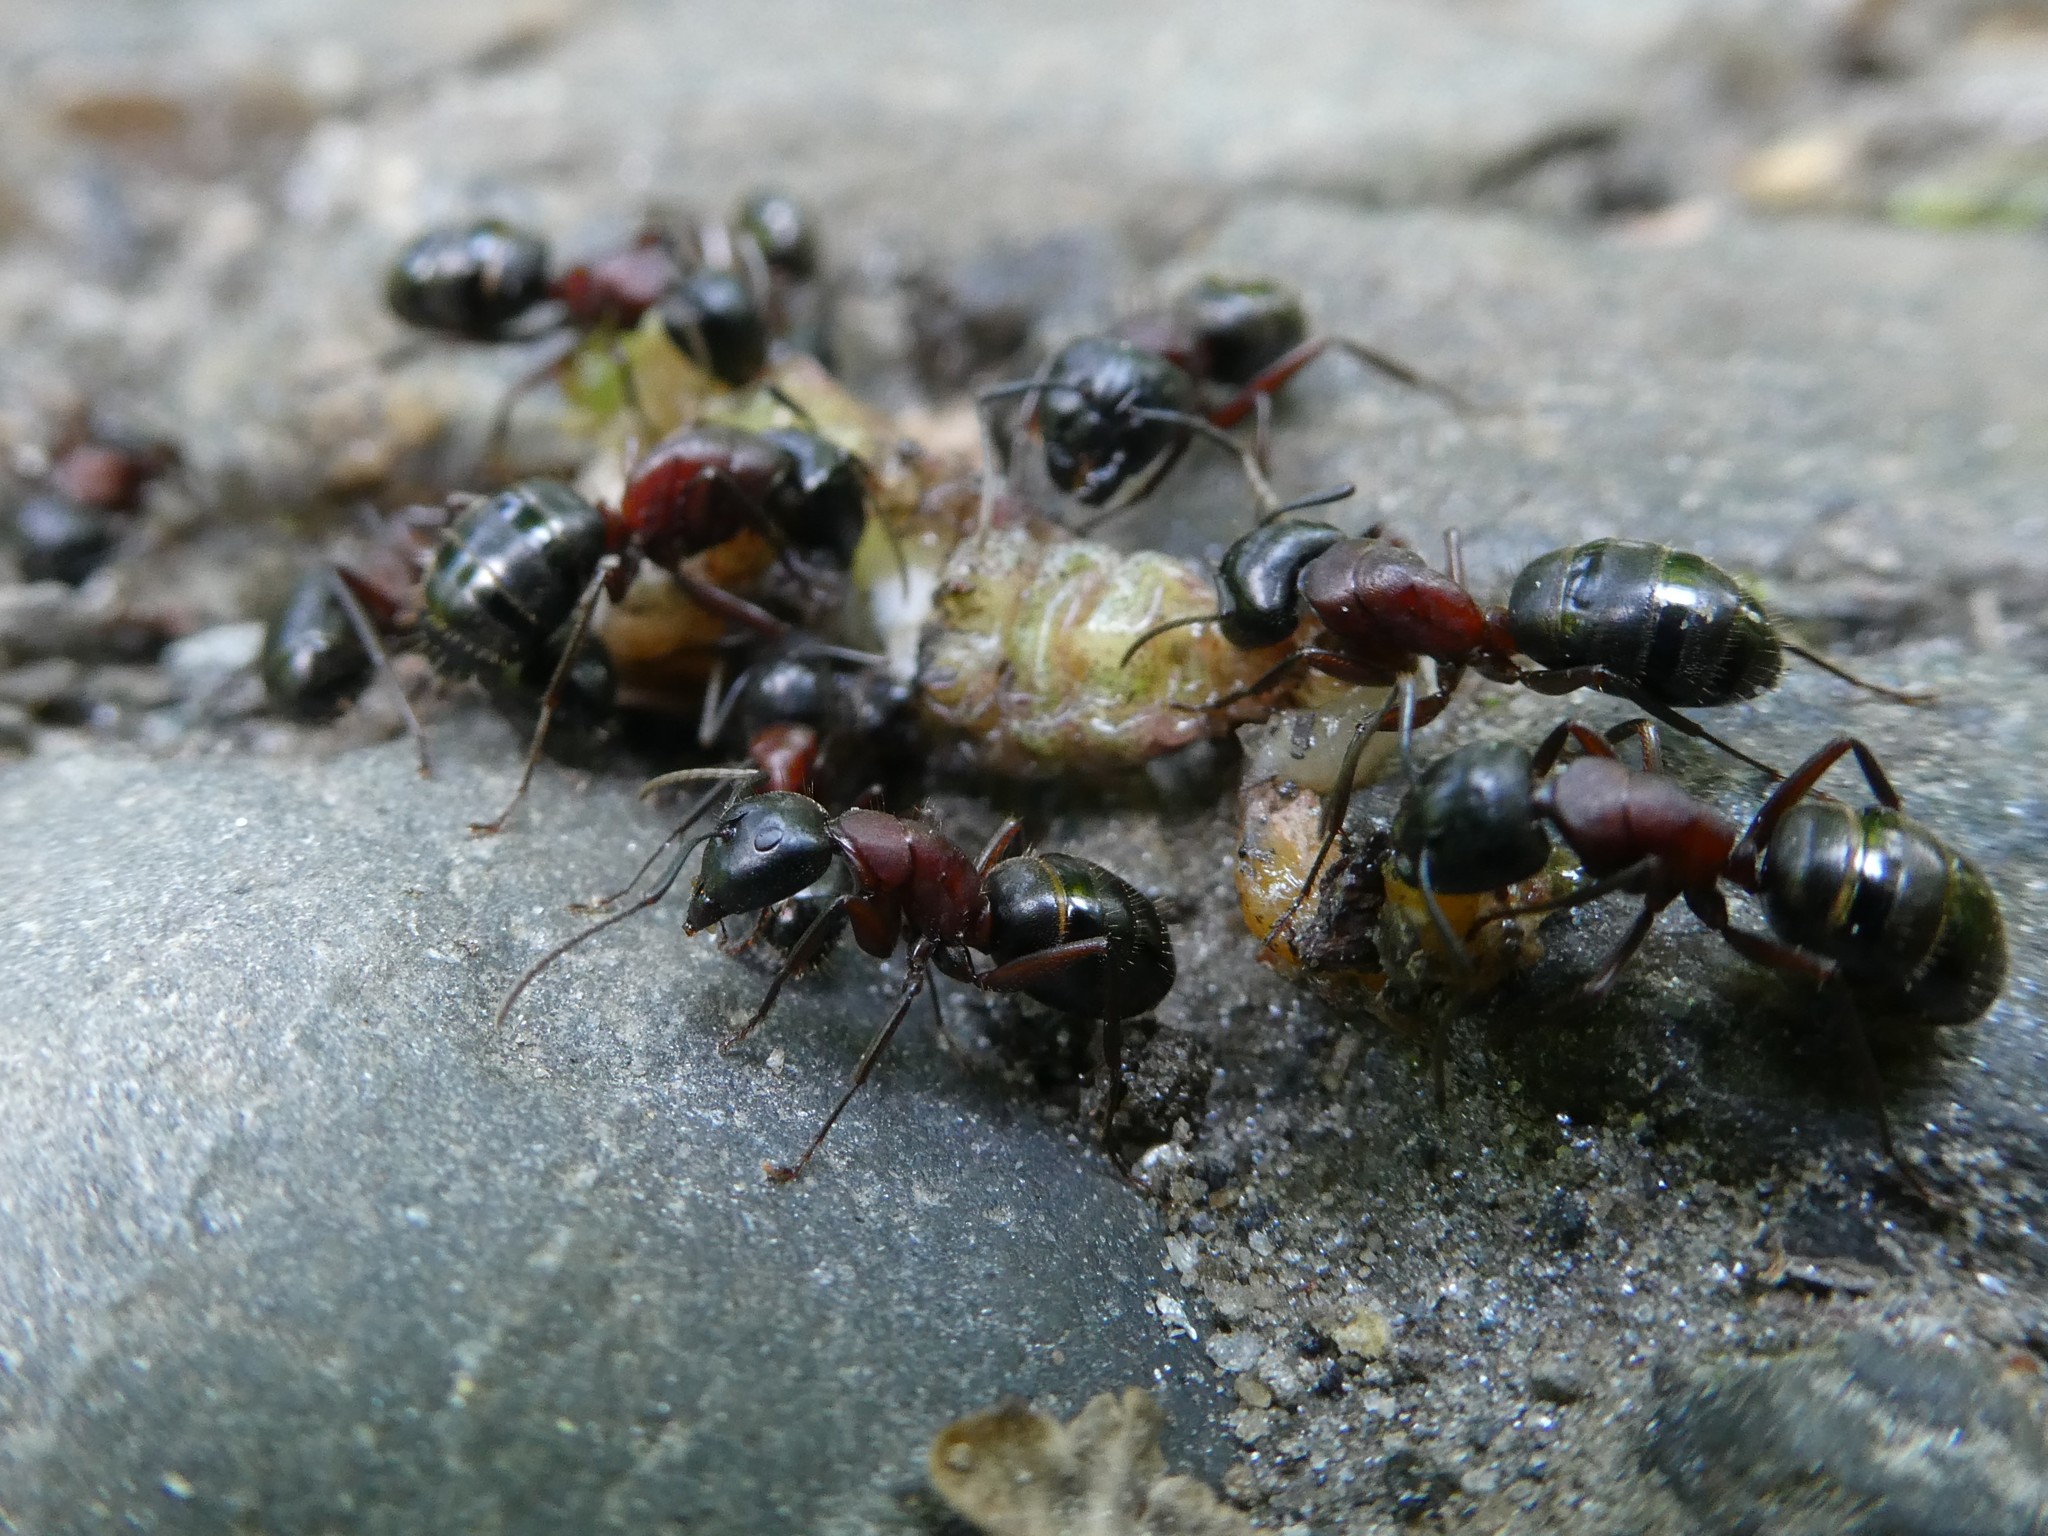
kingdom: Animalia
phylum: Arthropoda
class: Insecta
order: Hymenoptera
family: Formicidae
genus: Camponotus
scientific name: Camponotus novaeboracensis
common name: New york carpenter ant
